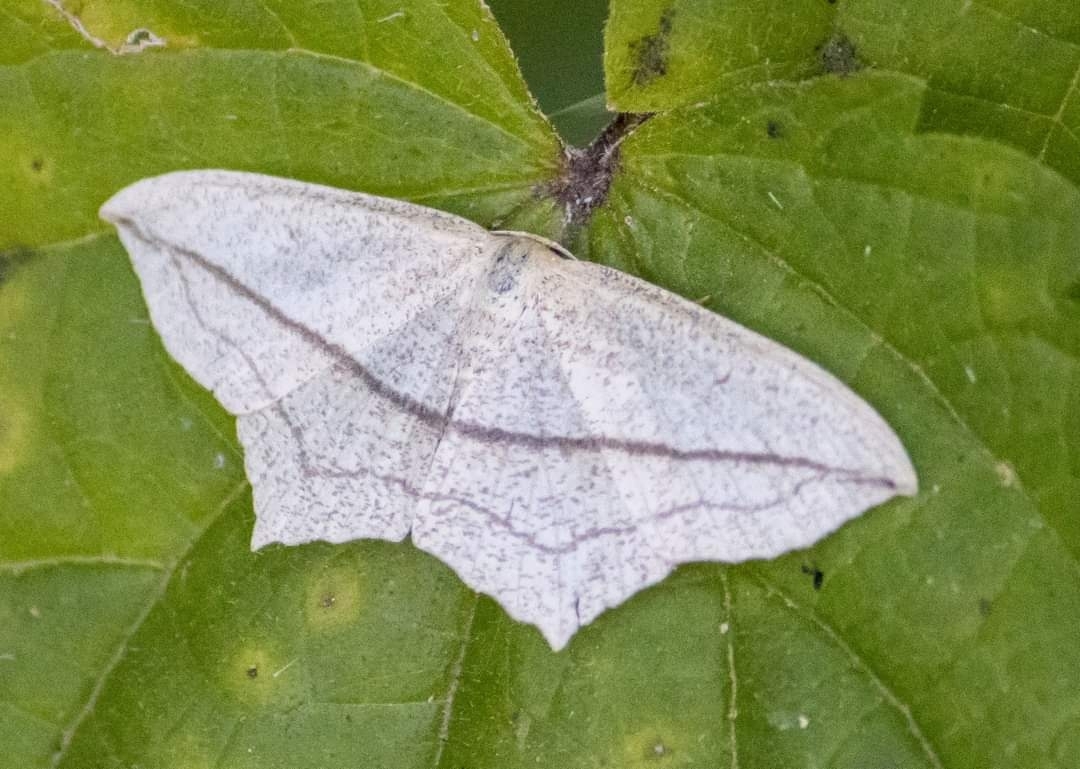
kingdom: Animalia
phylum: Arthropoda
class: Insecta
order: Lepidoptera
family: Geometridae
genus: Timandra
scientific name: Timandra comae
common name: Blood-vein
